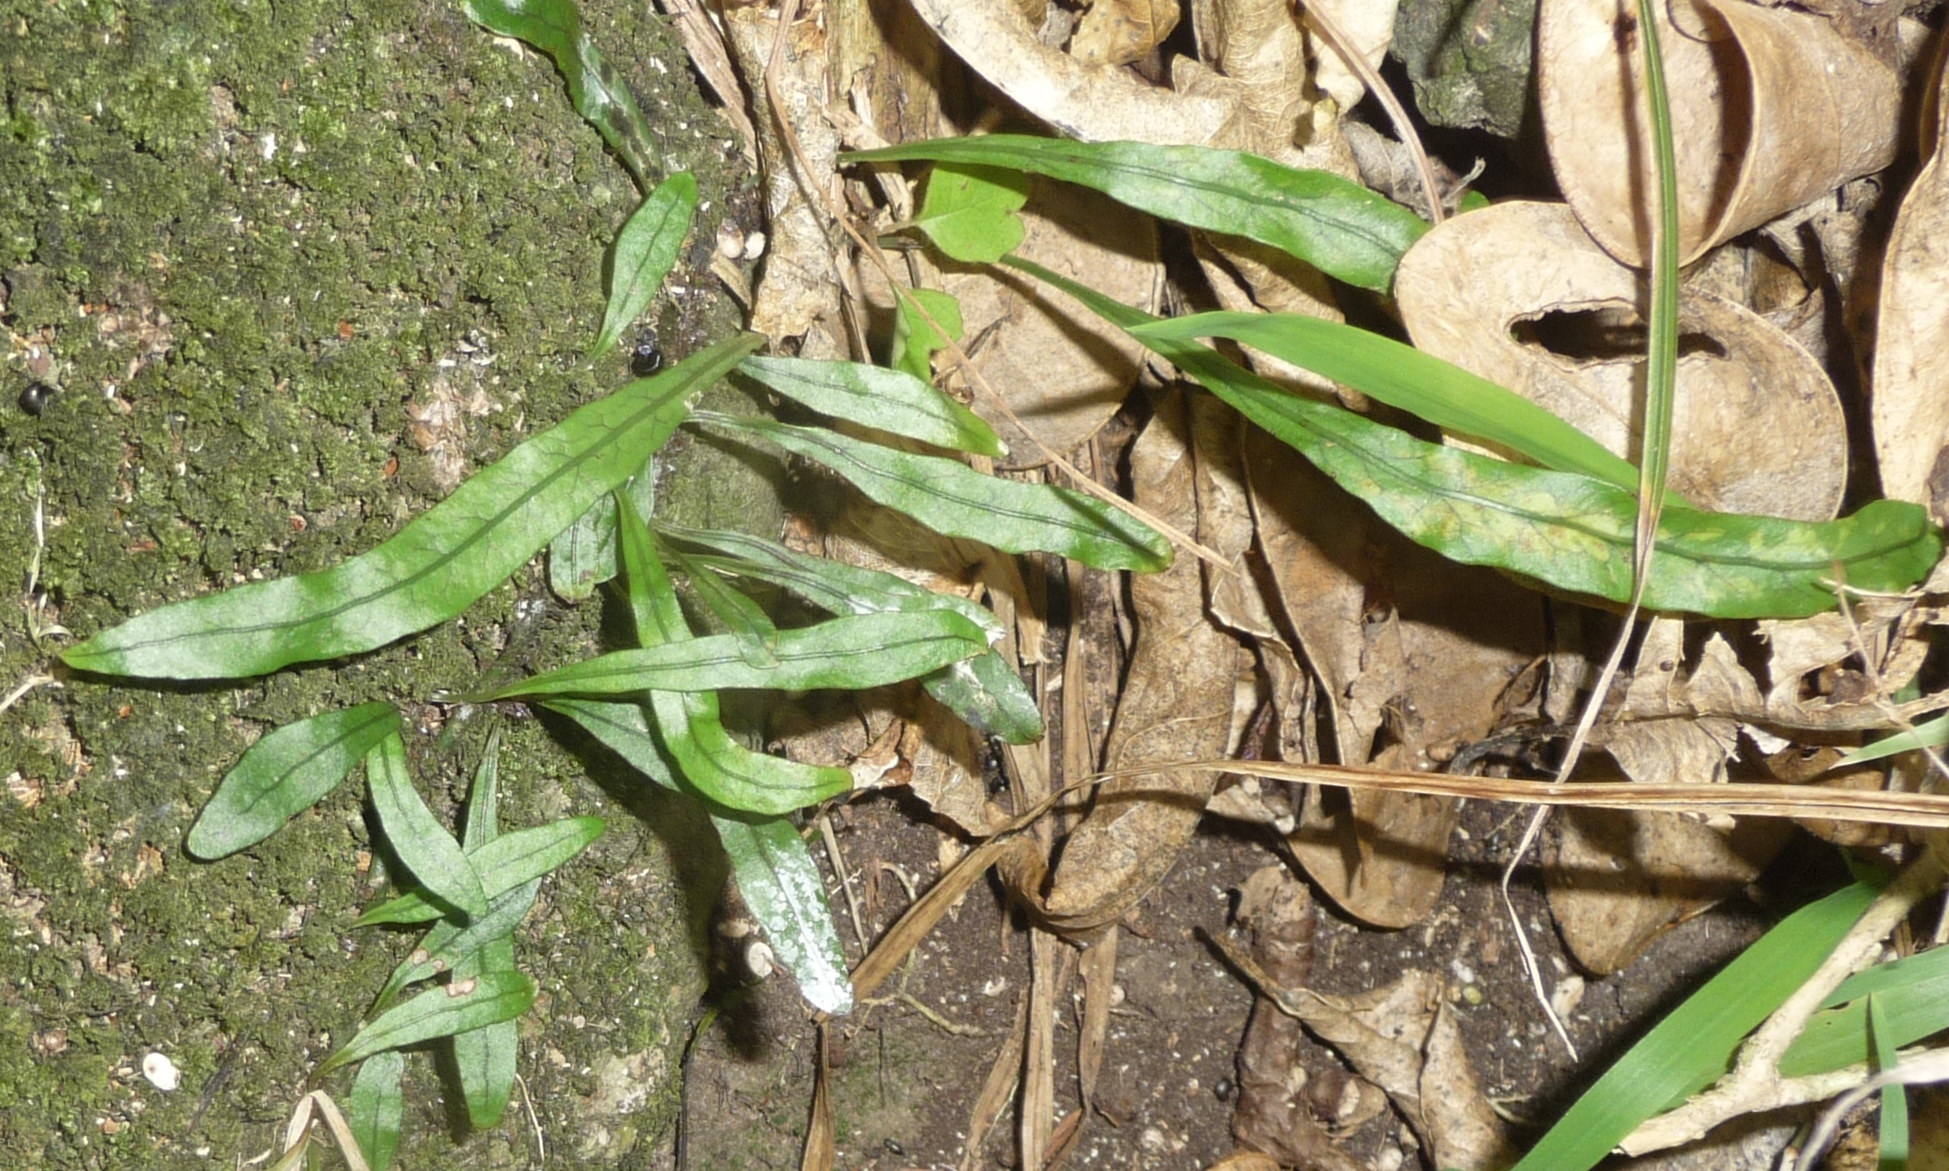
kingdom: Plantae
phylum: Tracheophyta
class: Polypodiopsida
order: Polypodiales
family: Polypodiaceae
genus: Lecanopteris
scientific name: Lecanopteris scandens
